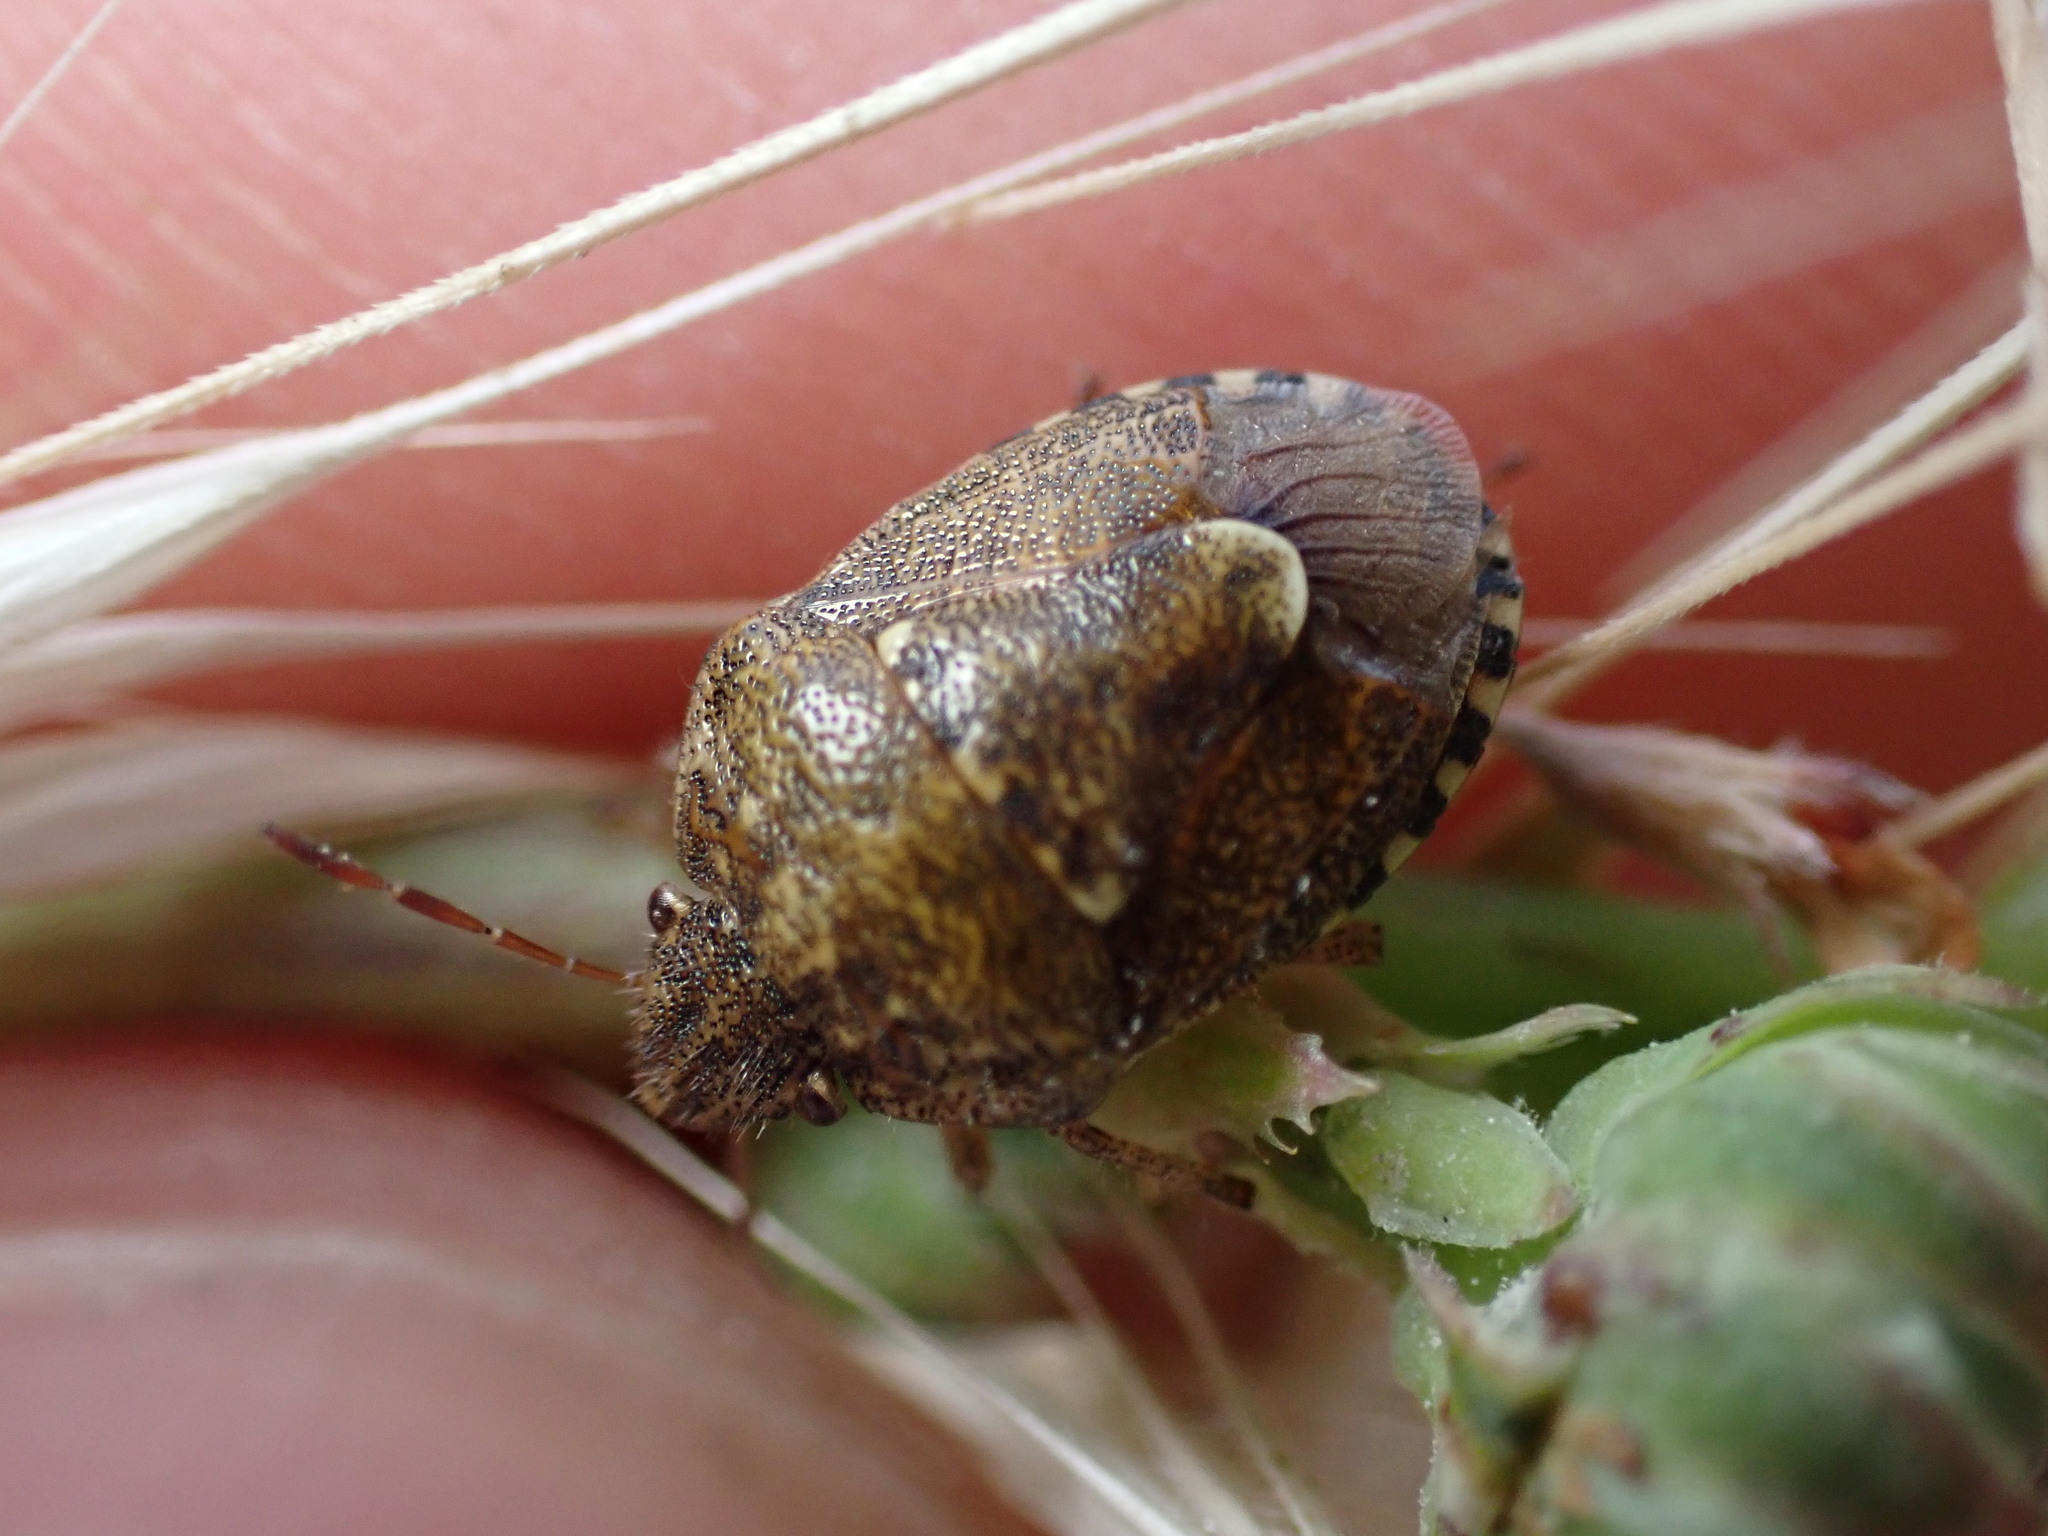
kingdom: Animalia
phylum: Arthropoda
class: Insecta
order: Hemiptera
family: Pentatomidae
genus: Staria
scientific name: Staria lunata
